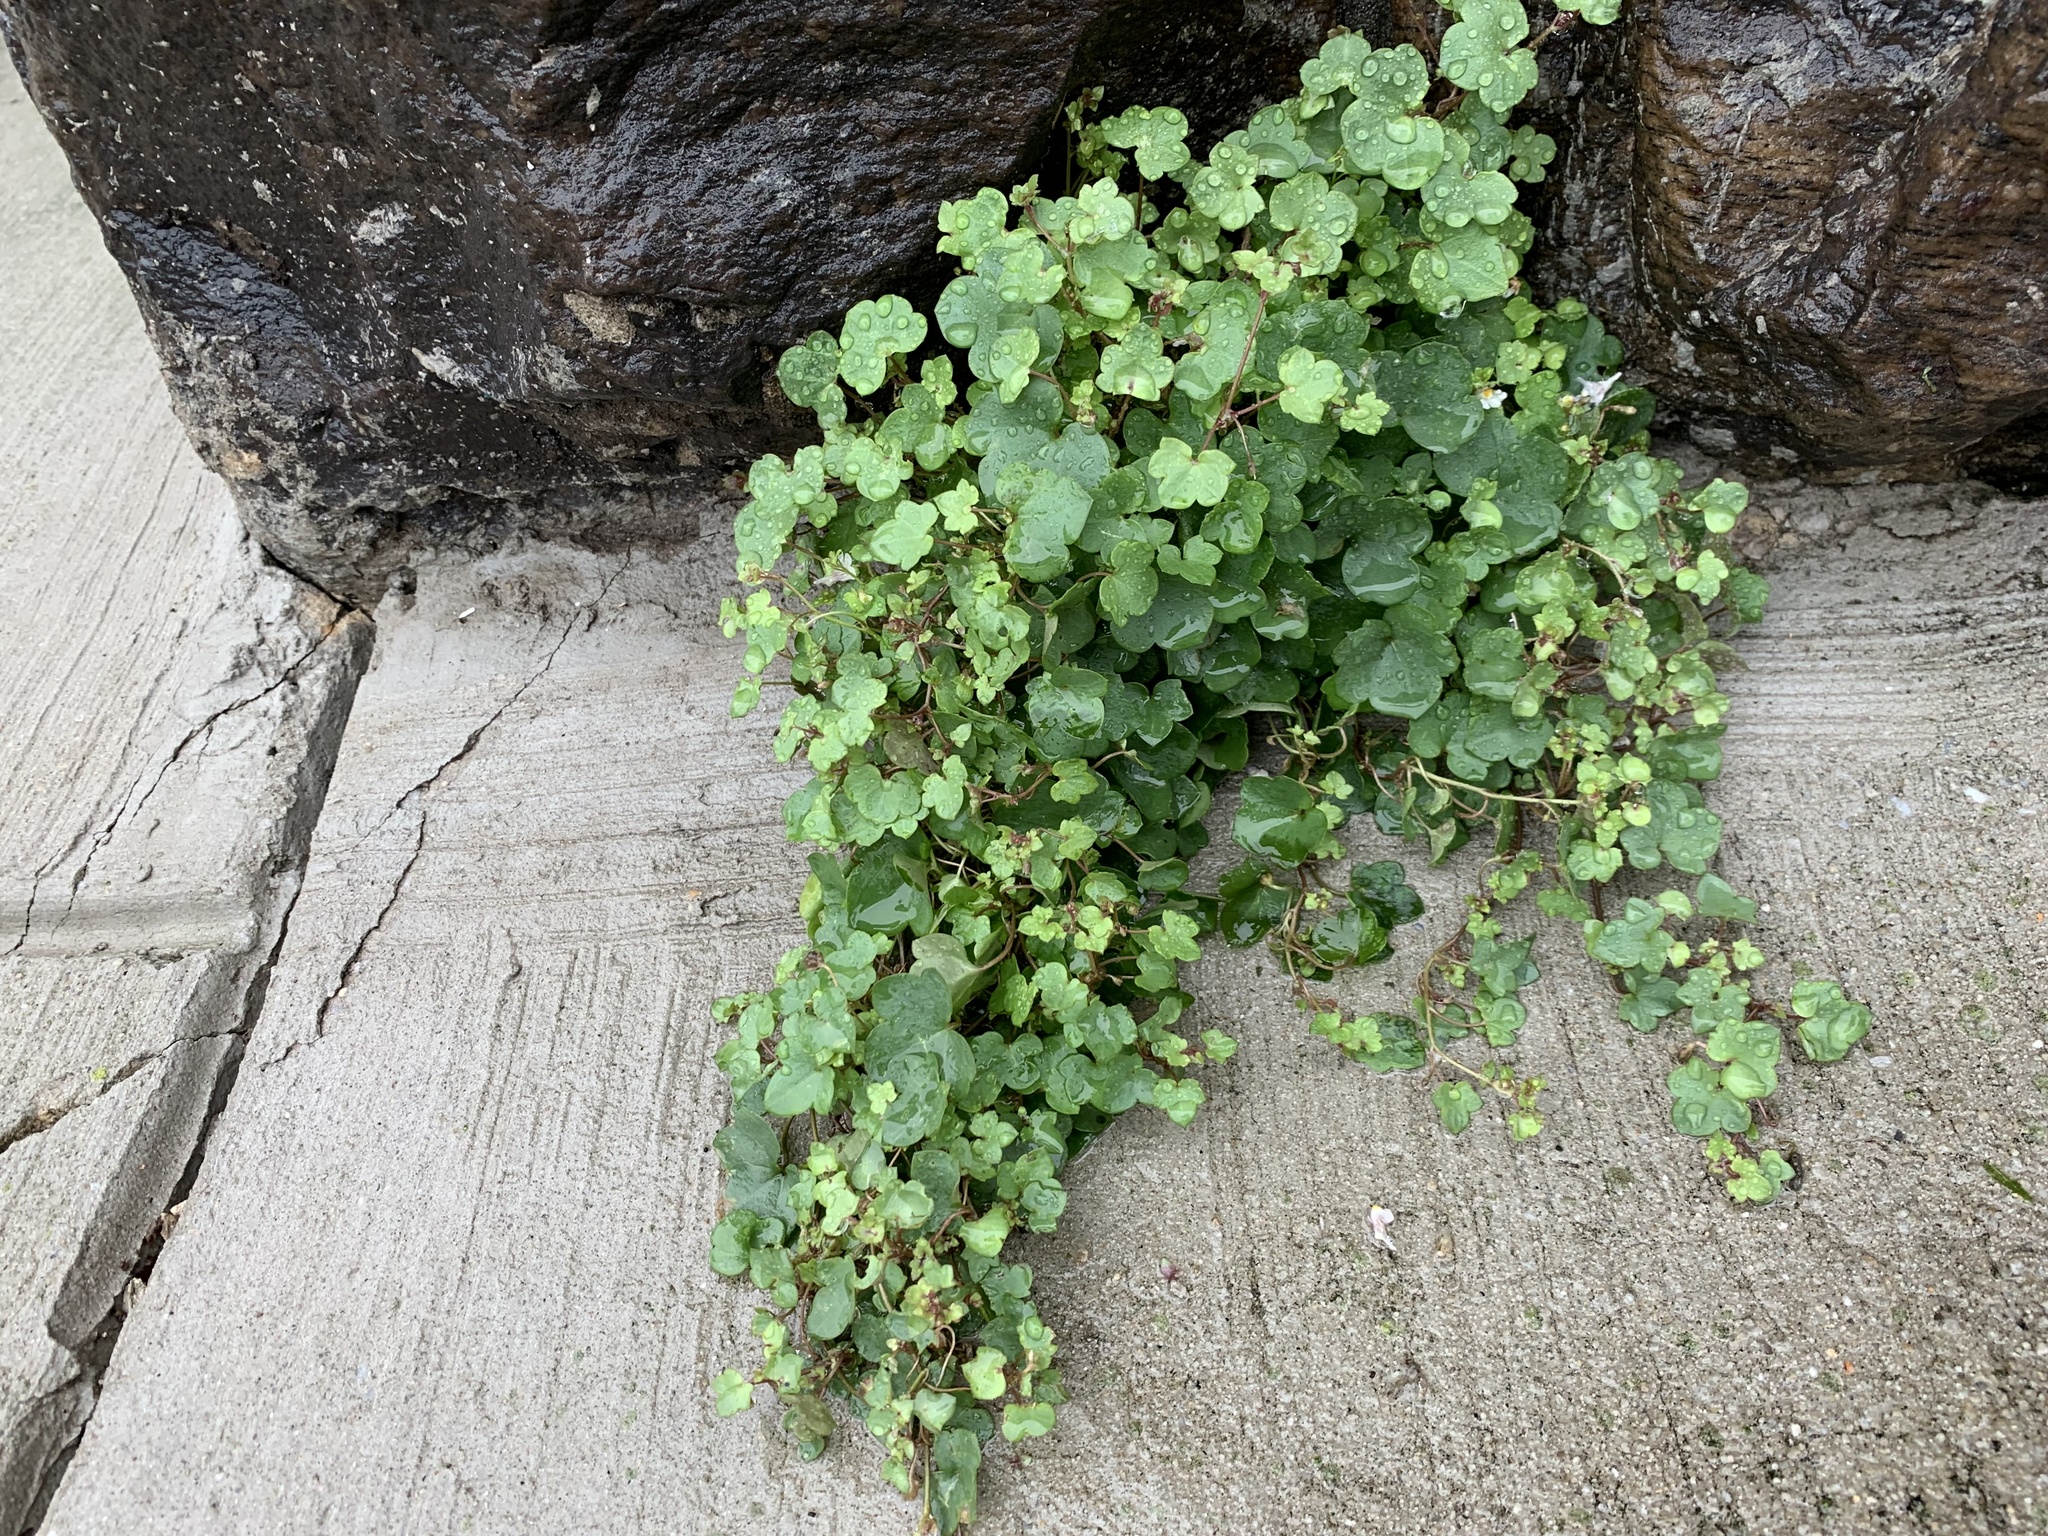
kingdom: Plantae
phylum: Tracheophyta
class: Magnoliopsida
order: Lamiales
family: Plantaginaceae
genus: Cymbalaria
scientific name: Cymbalaria muralis
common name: Ivy-leaved toadflax
